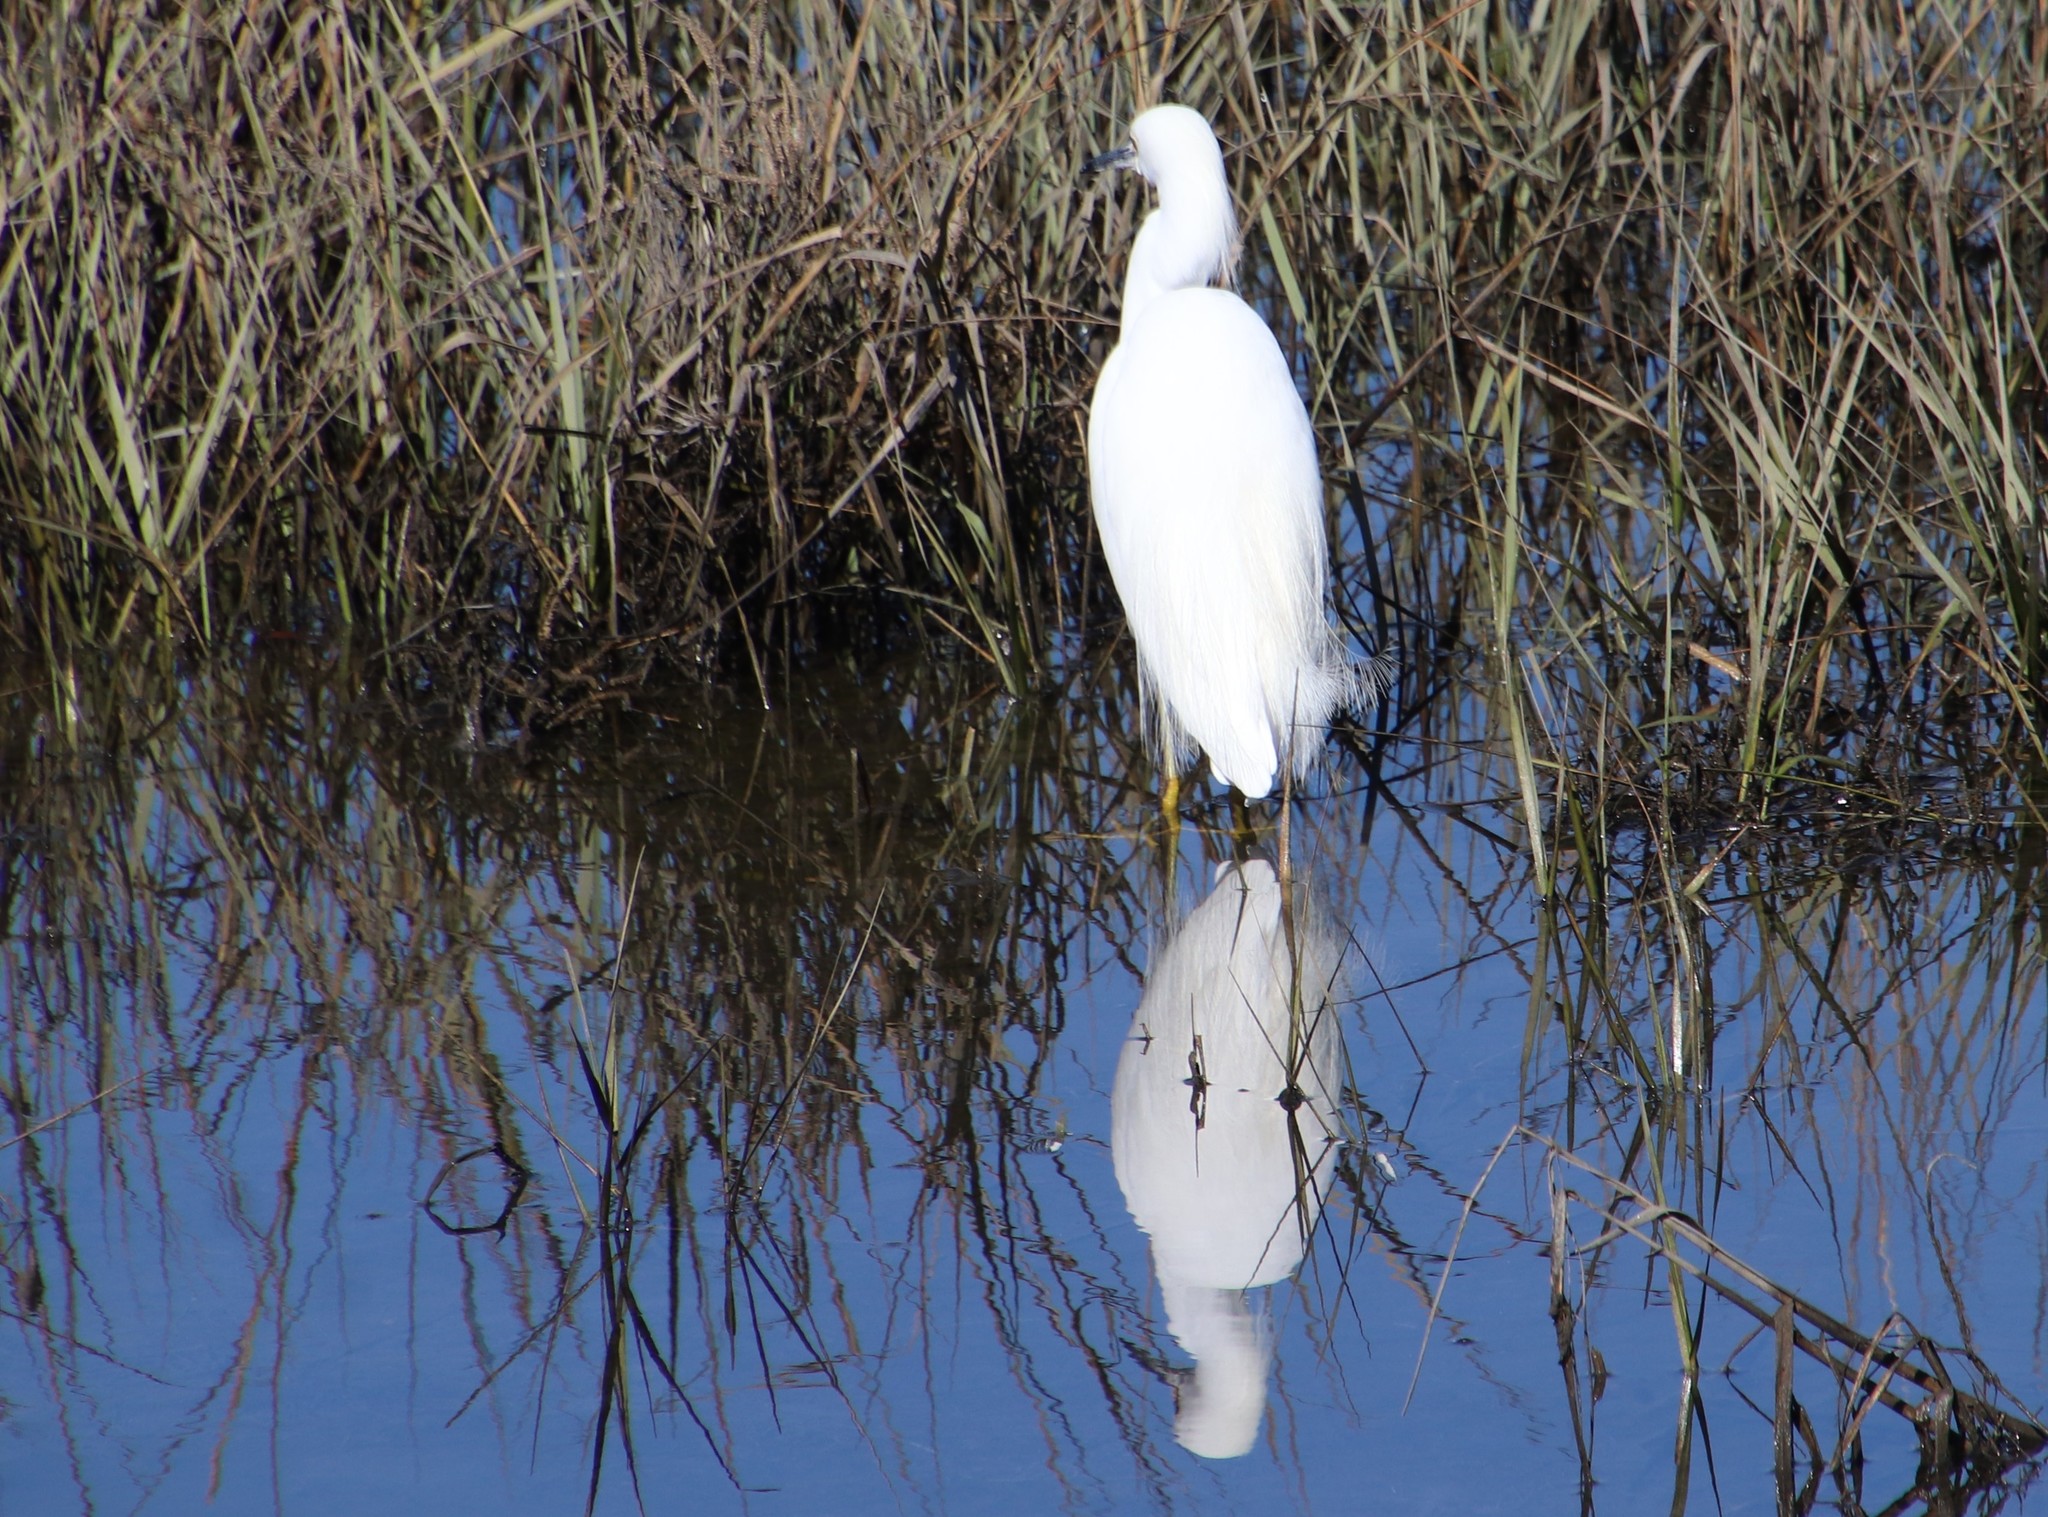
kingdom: Animalia
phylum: Chordata
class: Aves
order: Pelecaniformes
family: Ardeidae
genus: Egretta
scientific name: Egretta thula
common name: Snowy egret
